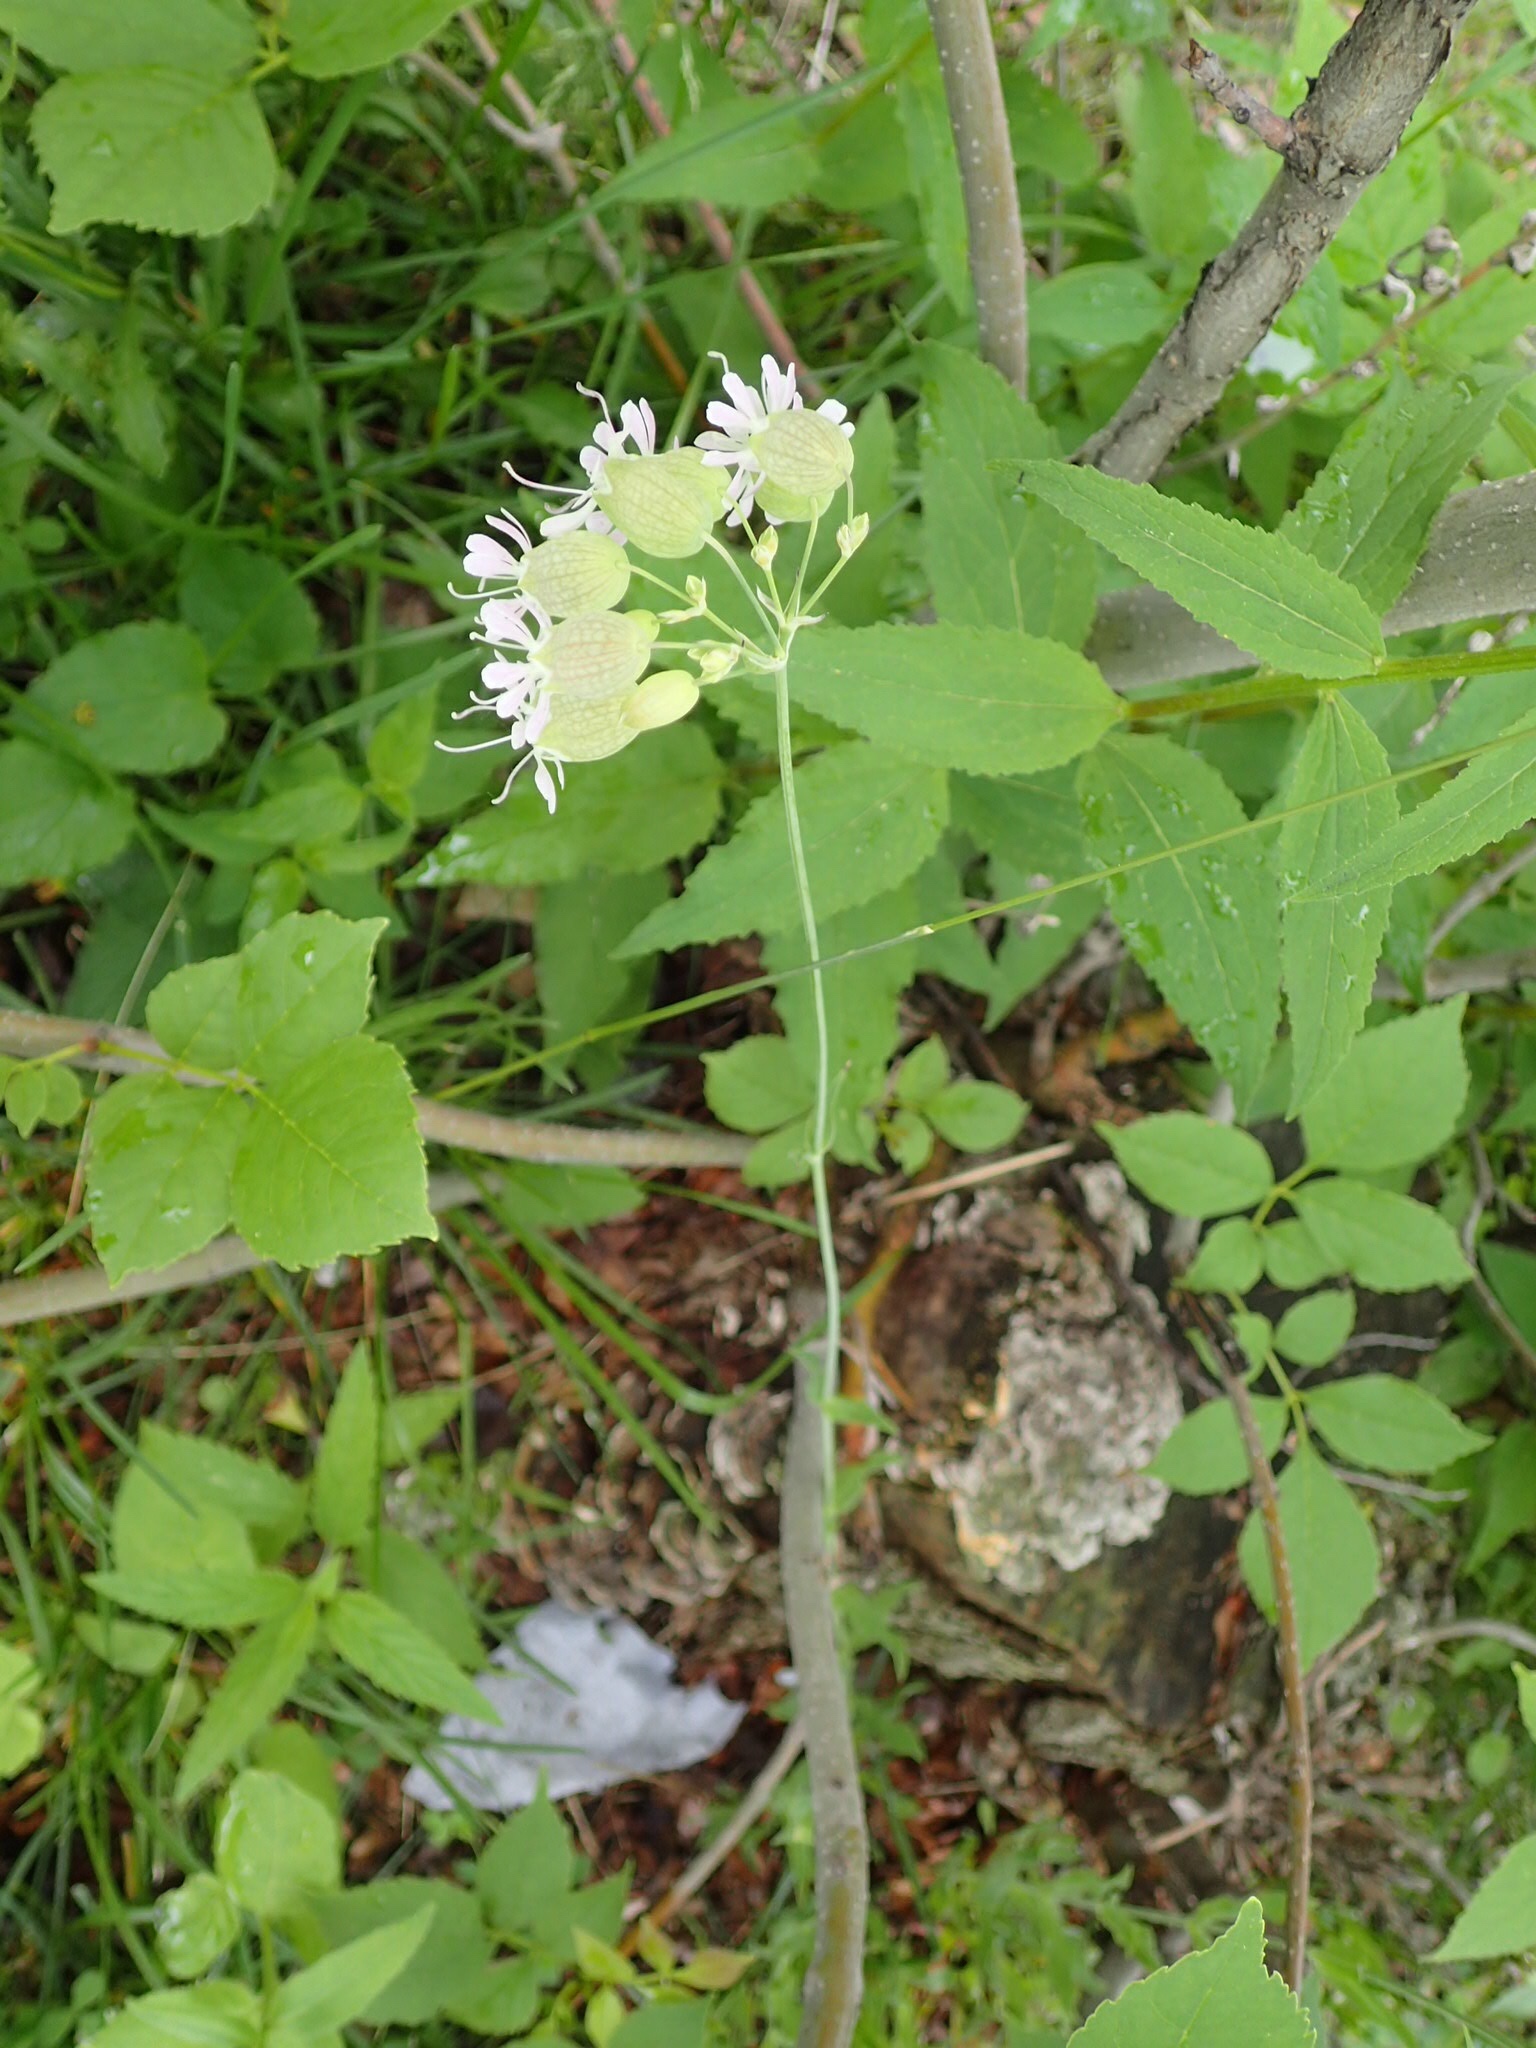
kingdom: Plantae
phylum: Tracheophyta
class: Magnoliopsida
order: Caryophyllales
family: Caryophyllaceae
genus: Silene
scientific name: Silene vulgaris
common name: Bladder campion
